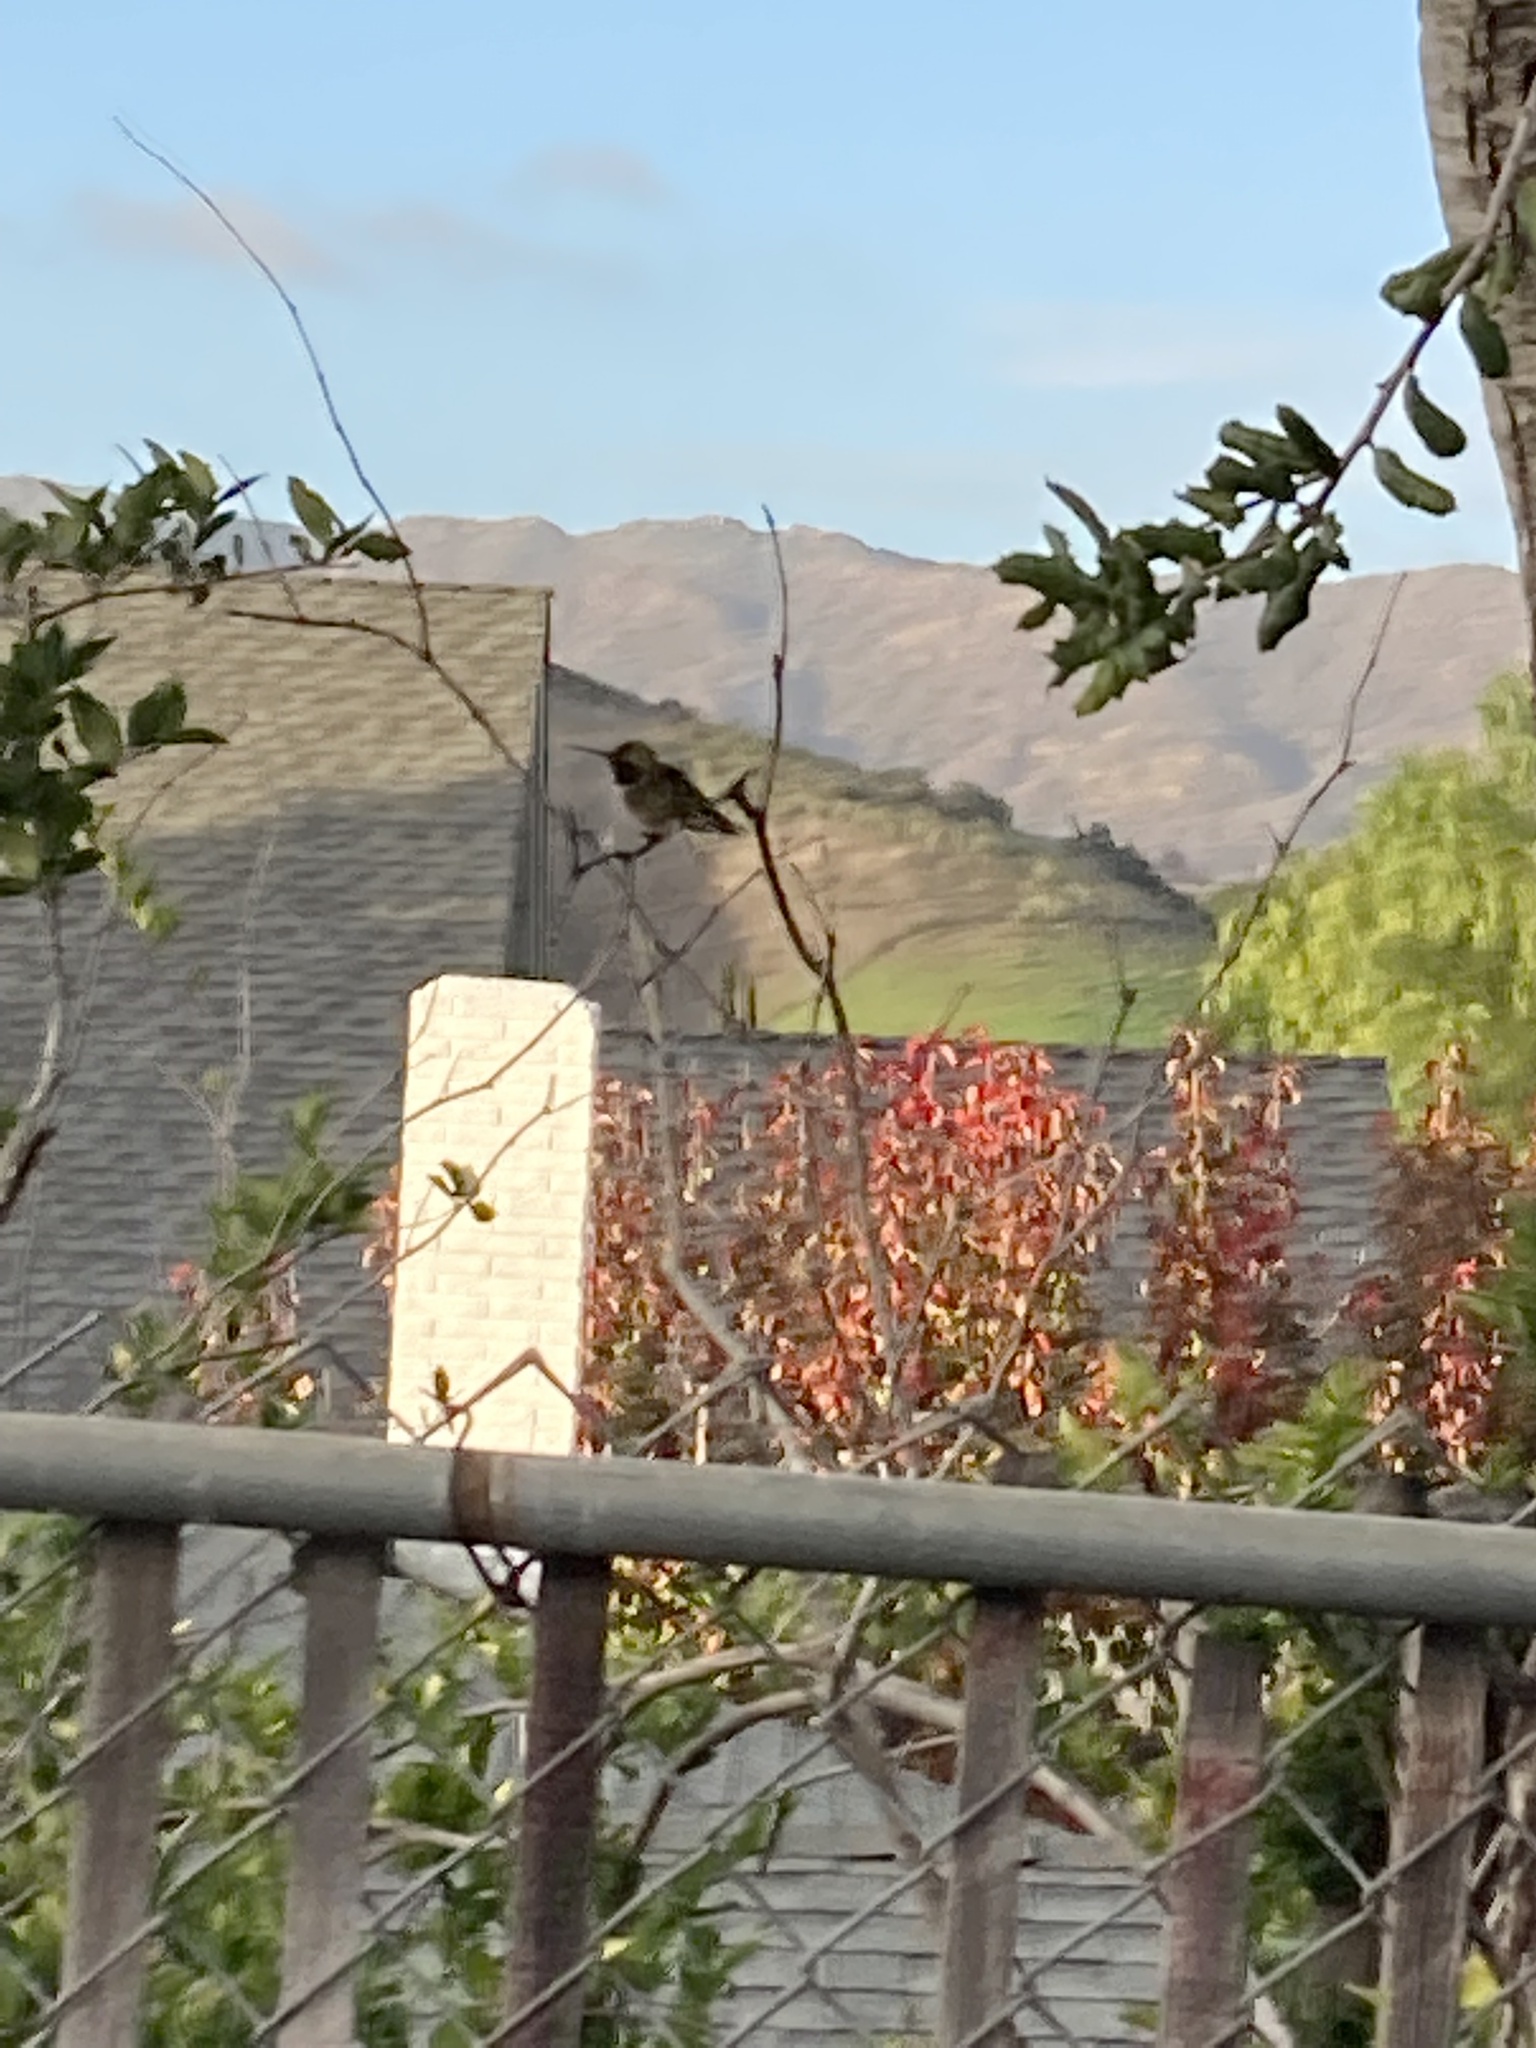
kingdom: Animalia
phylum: Chordata
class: Aves
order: Apodiformes
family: Trochilidae
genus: Calypte
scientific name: Calypte anna
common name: Anna's hummingbird
